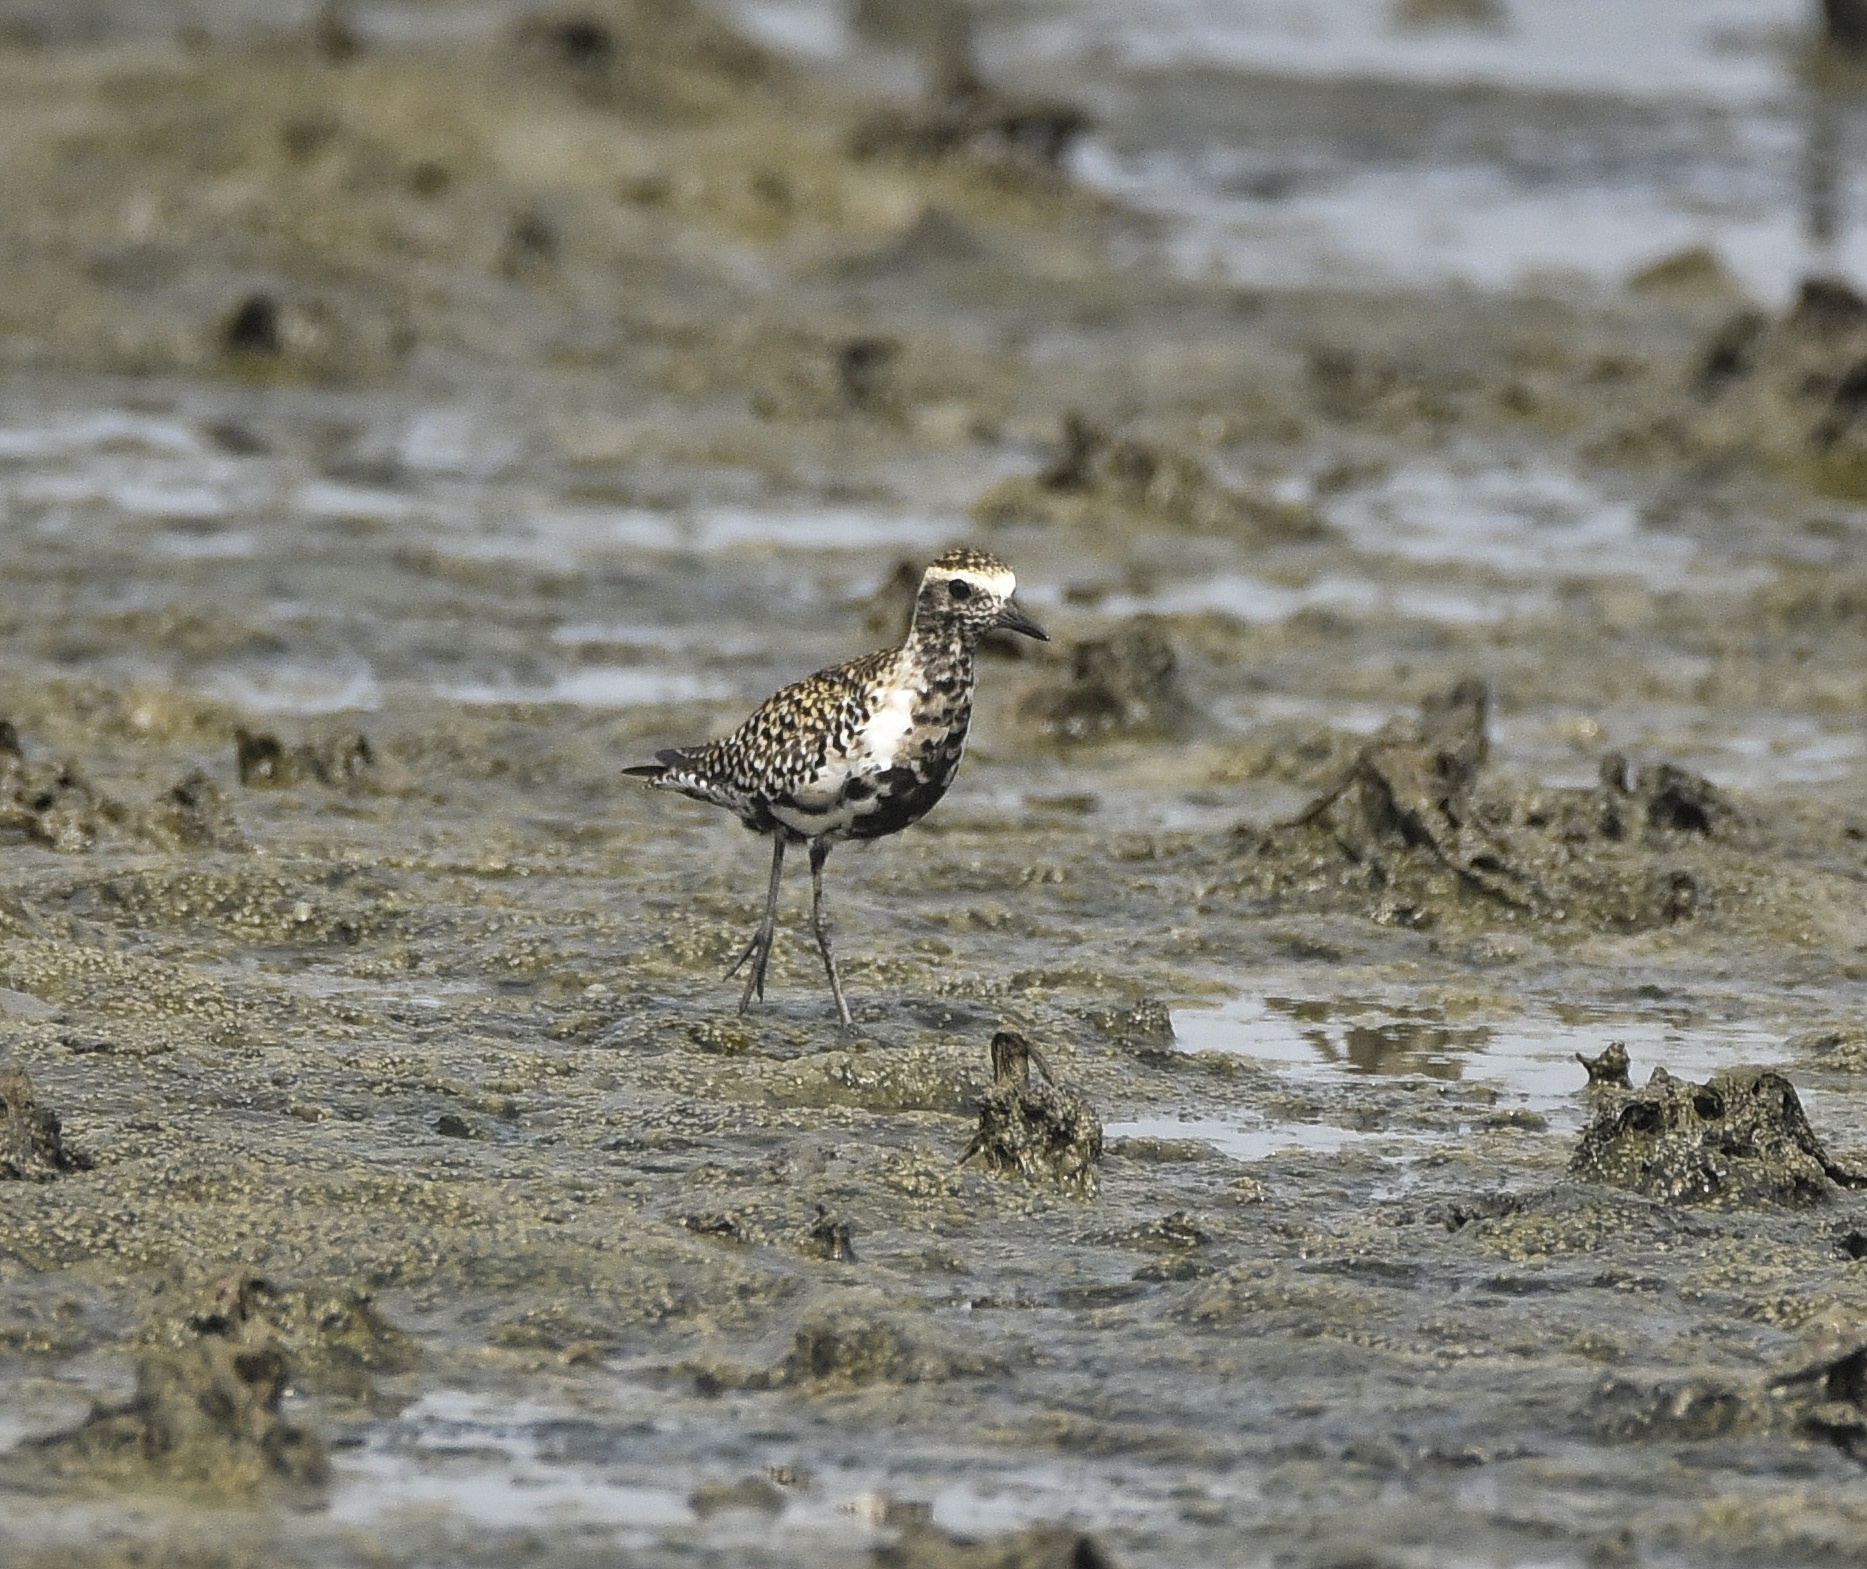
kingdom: Animalia
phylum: Chordata
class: Aves
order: Charadriiformes
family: Charadriidae
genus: Pluvialis
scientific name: Pluvialis fulva
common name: Pacific golden plover
